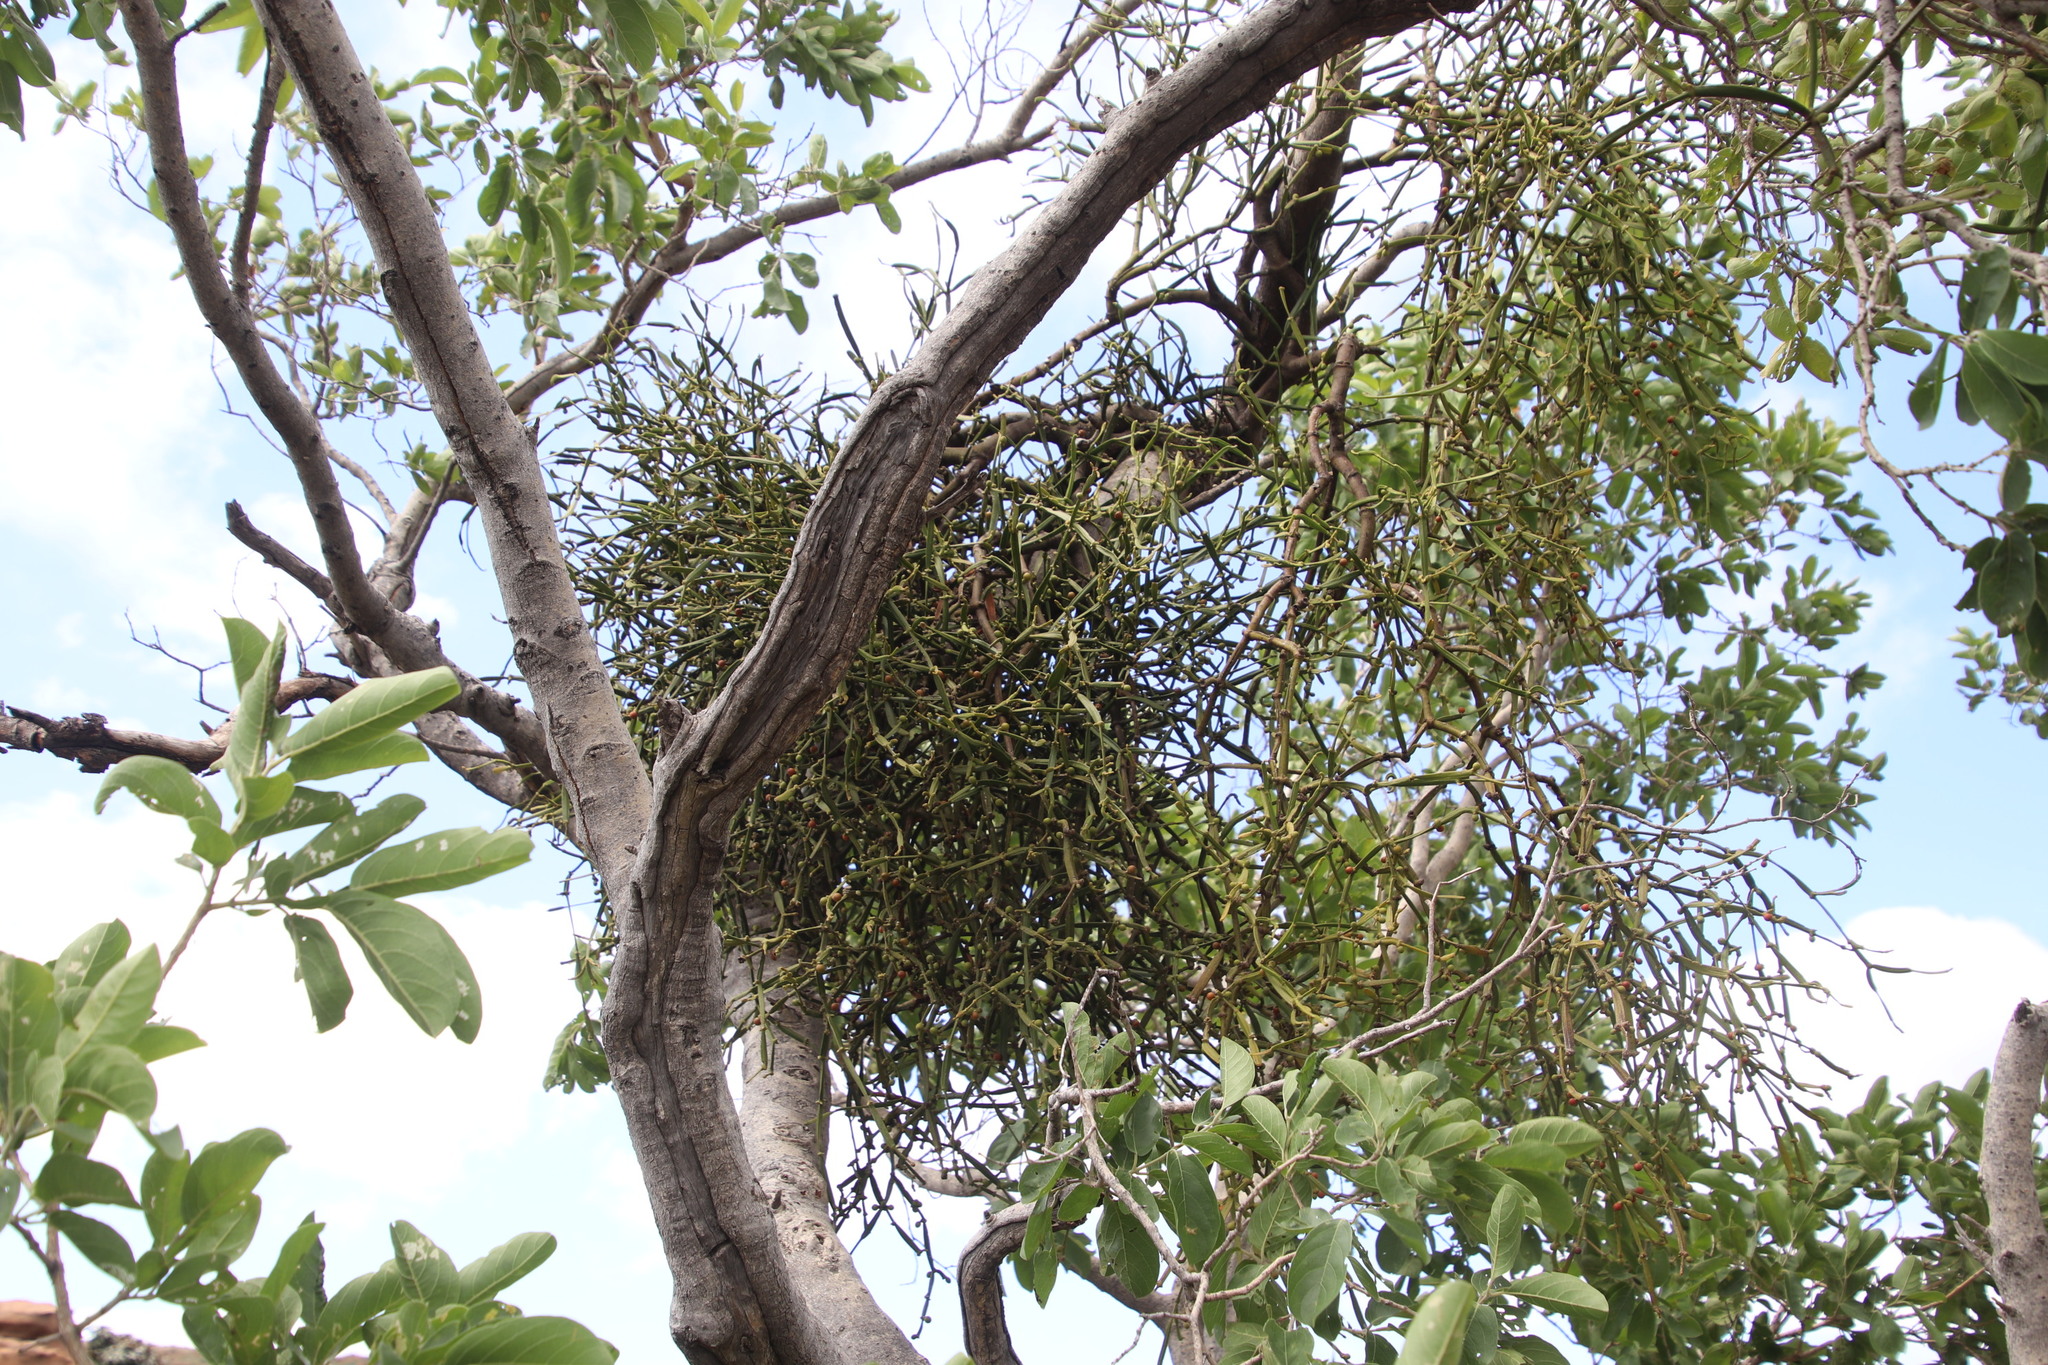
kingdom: Plantae
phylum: Tracheophyta
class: Magnoliopsida
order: Santalales
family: Viscaceae
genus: Viscum
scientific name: Viscum combreticola
